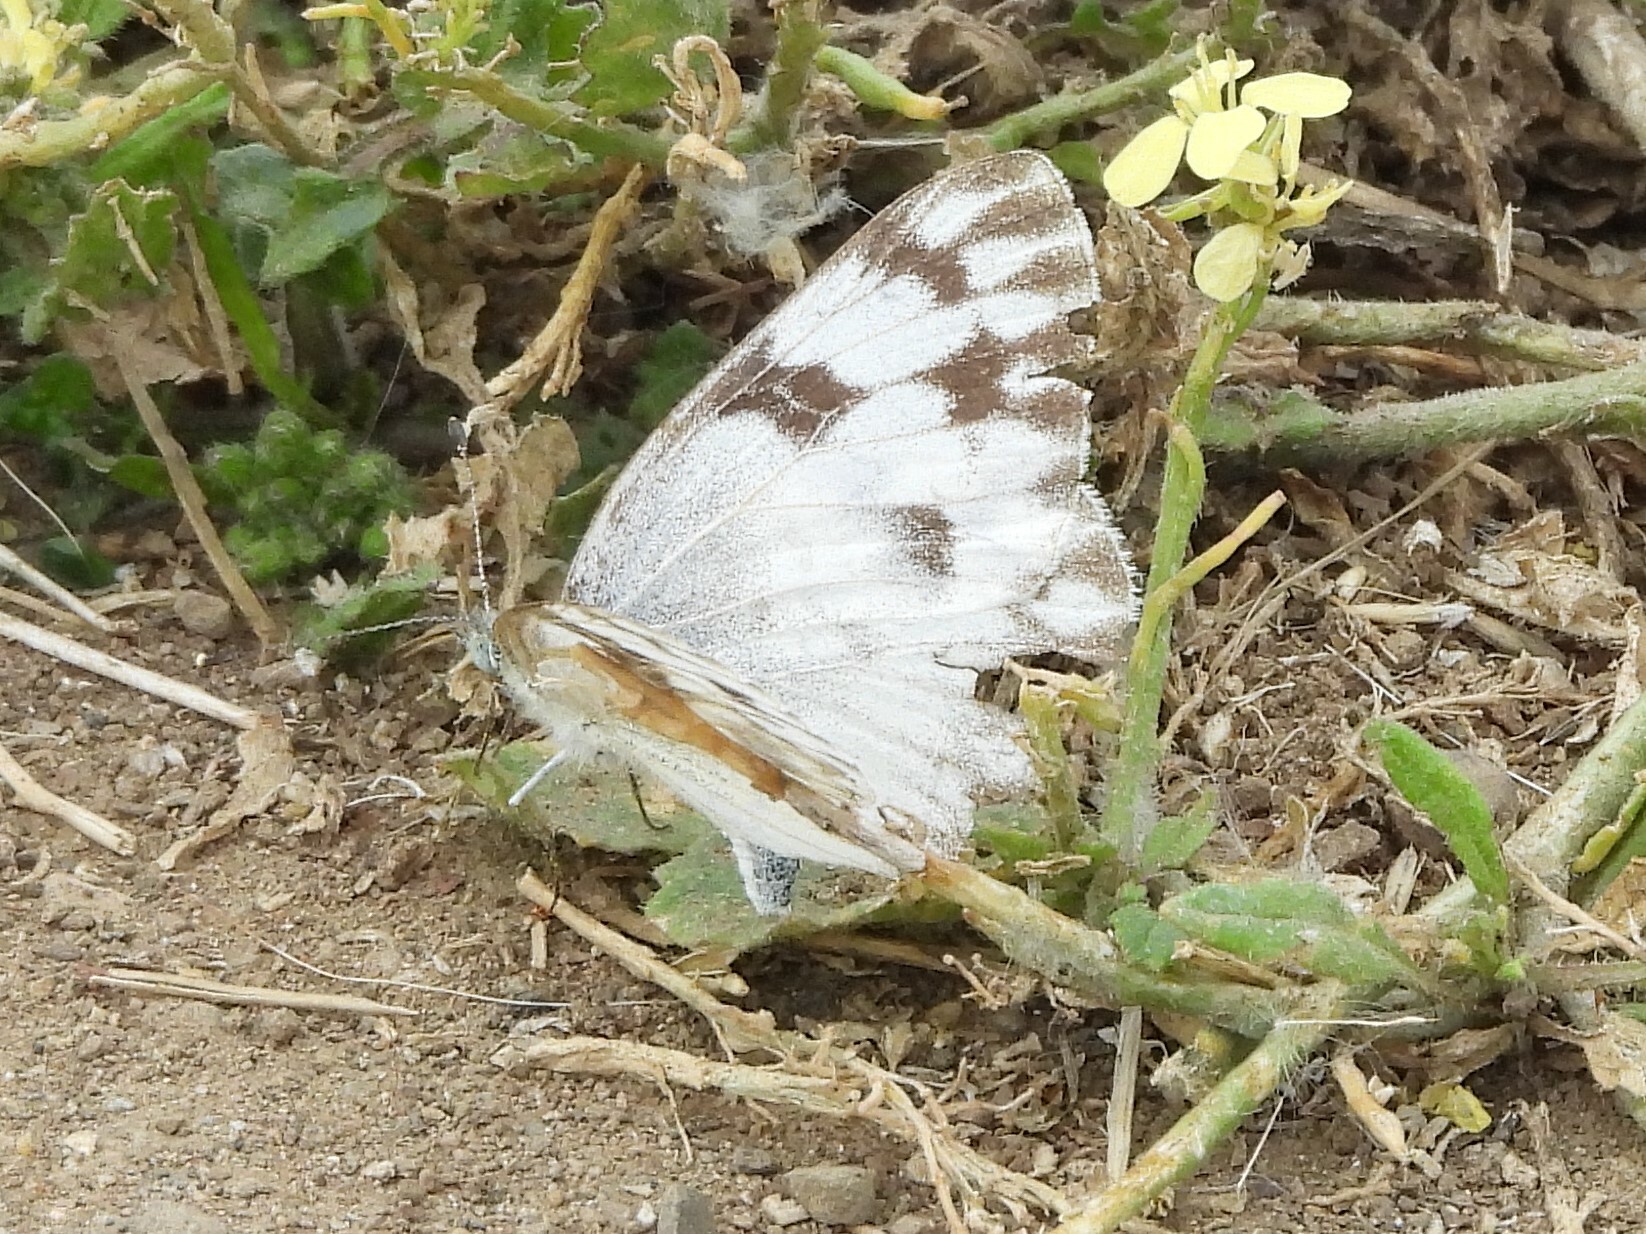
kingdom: Animalia
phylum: Arthropoda
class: Insecta
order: Lepidoptera
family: Pieridae
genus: Pontia
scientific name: Pontia protodice
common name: Checkered white
